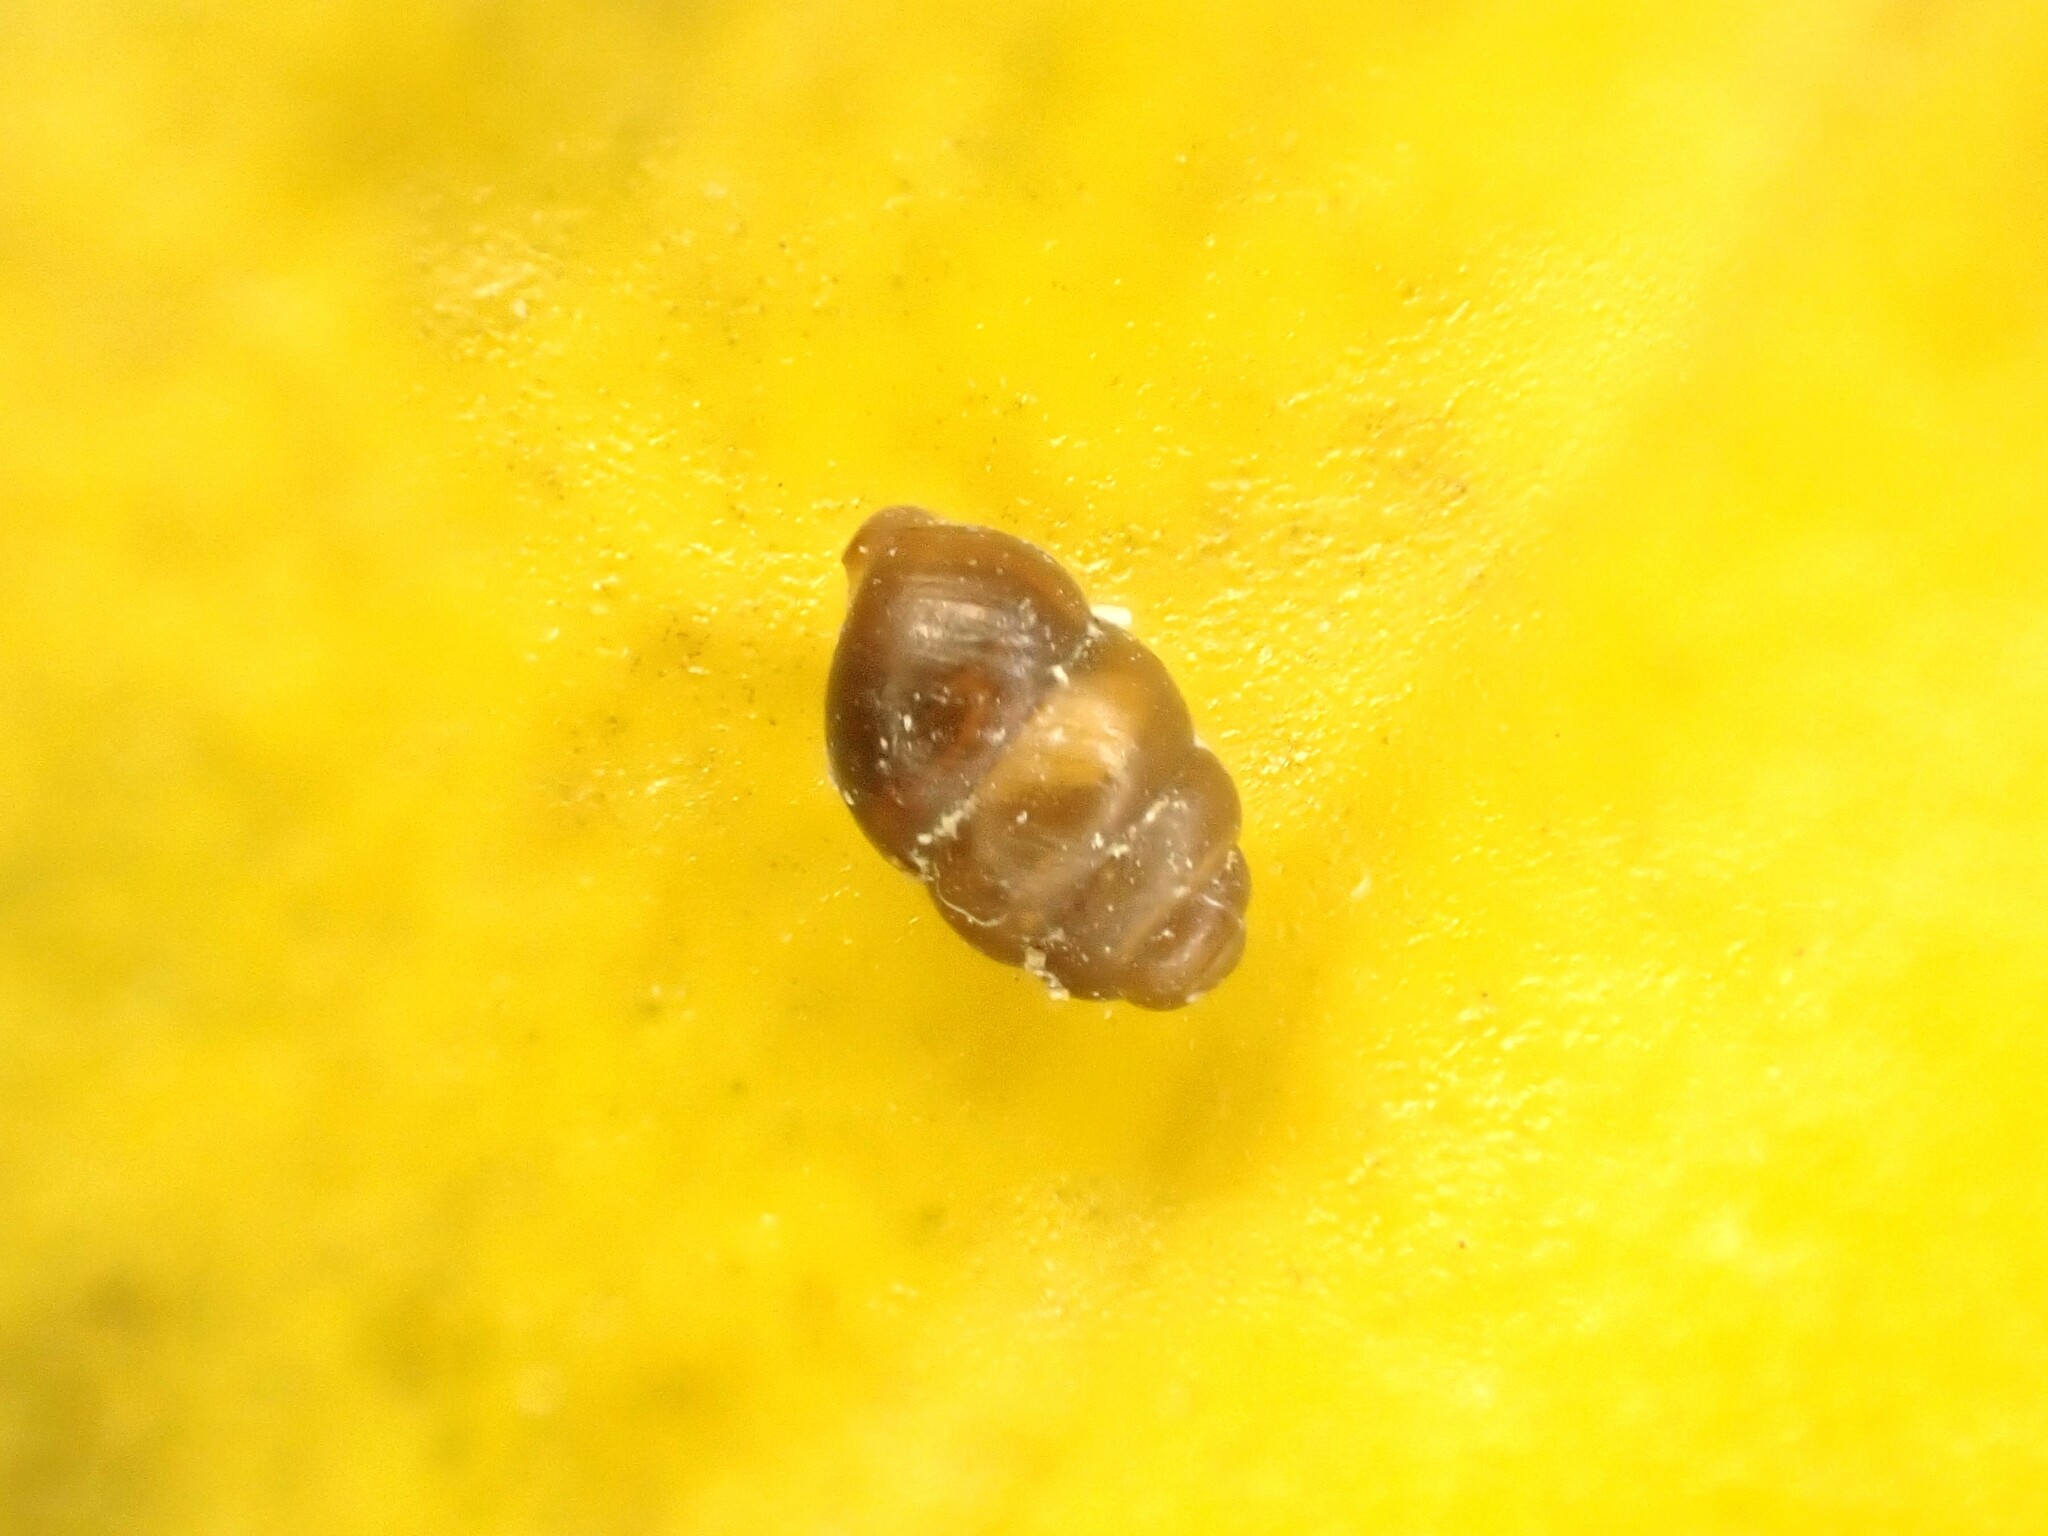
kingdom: Animalia
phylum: Mollusca
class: Gastropoda
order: Stylommatophora
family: Vertiginidae
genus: Vertigo
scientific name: Vertigo ovata
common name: Grassland whorl snail
